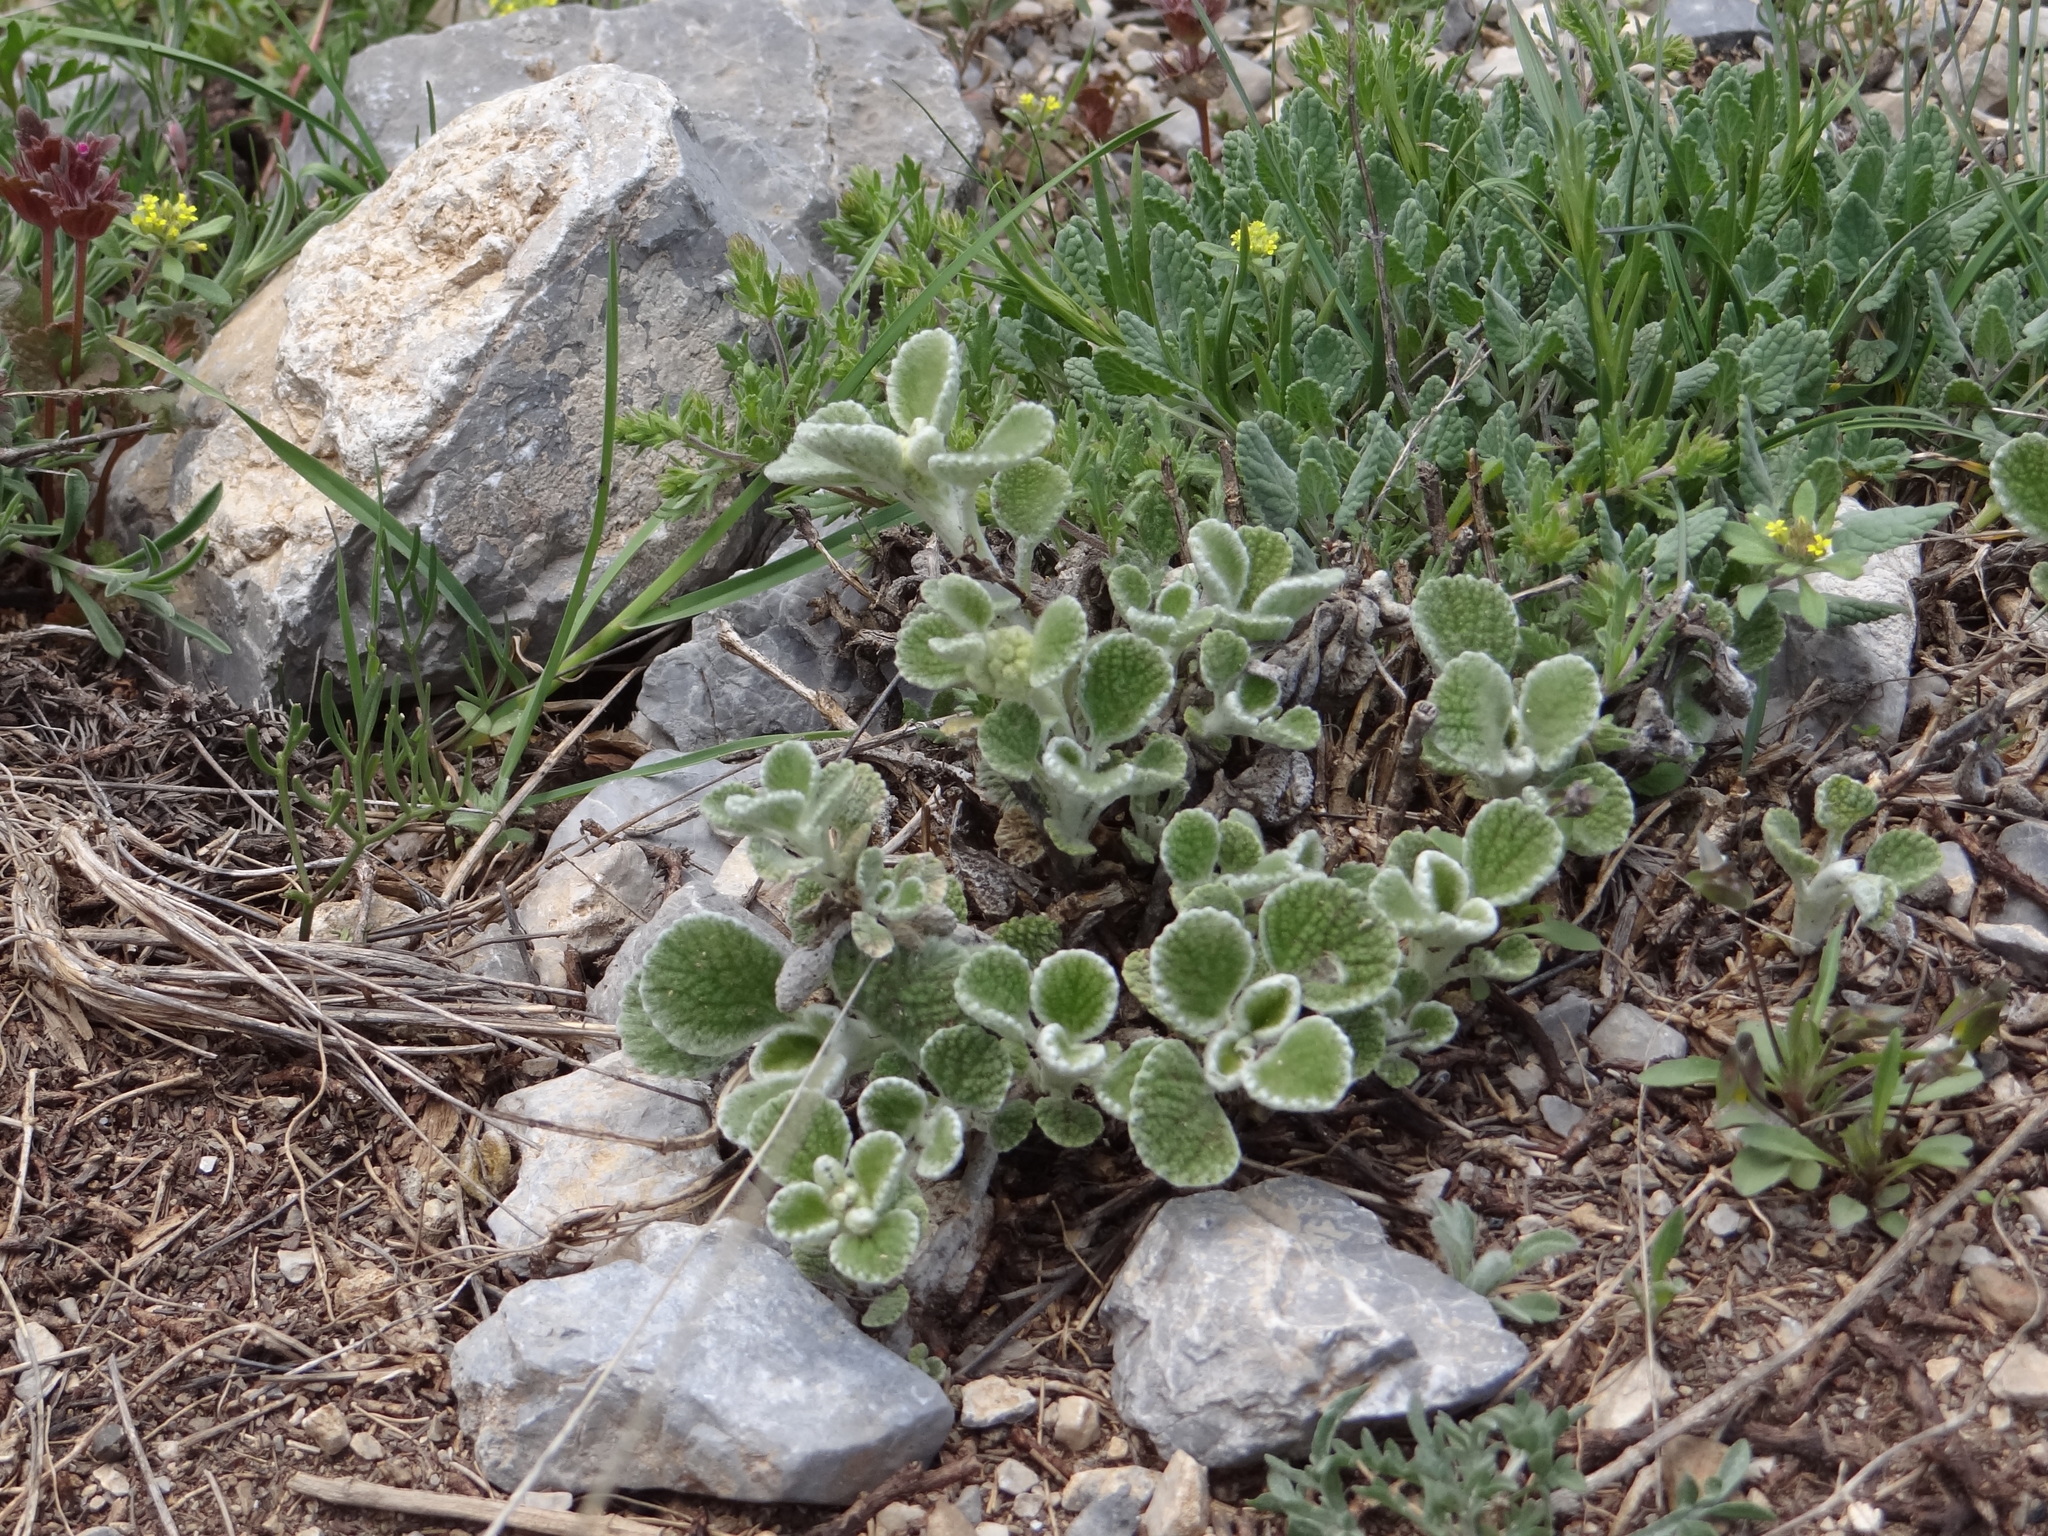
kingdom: Plantae
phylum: Tracheophyta
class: Magnoliopsida
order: Lamiales
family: Lamiaceae
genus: Marrubium
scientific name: Marrubium cephalanthum
